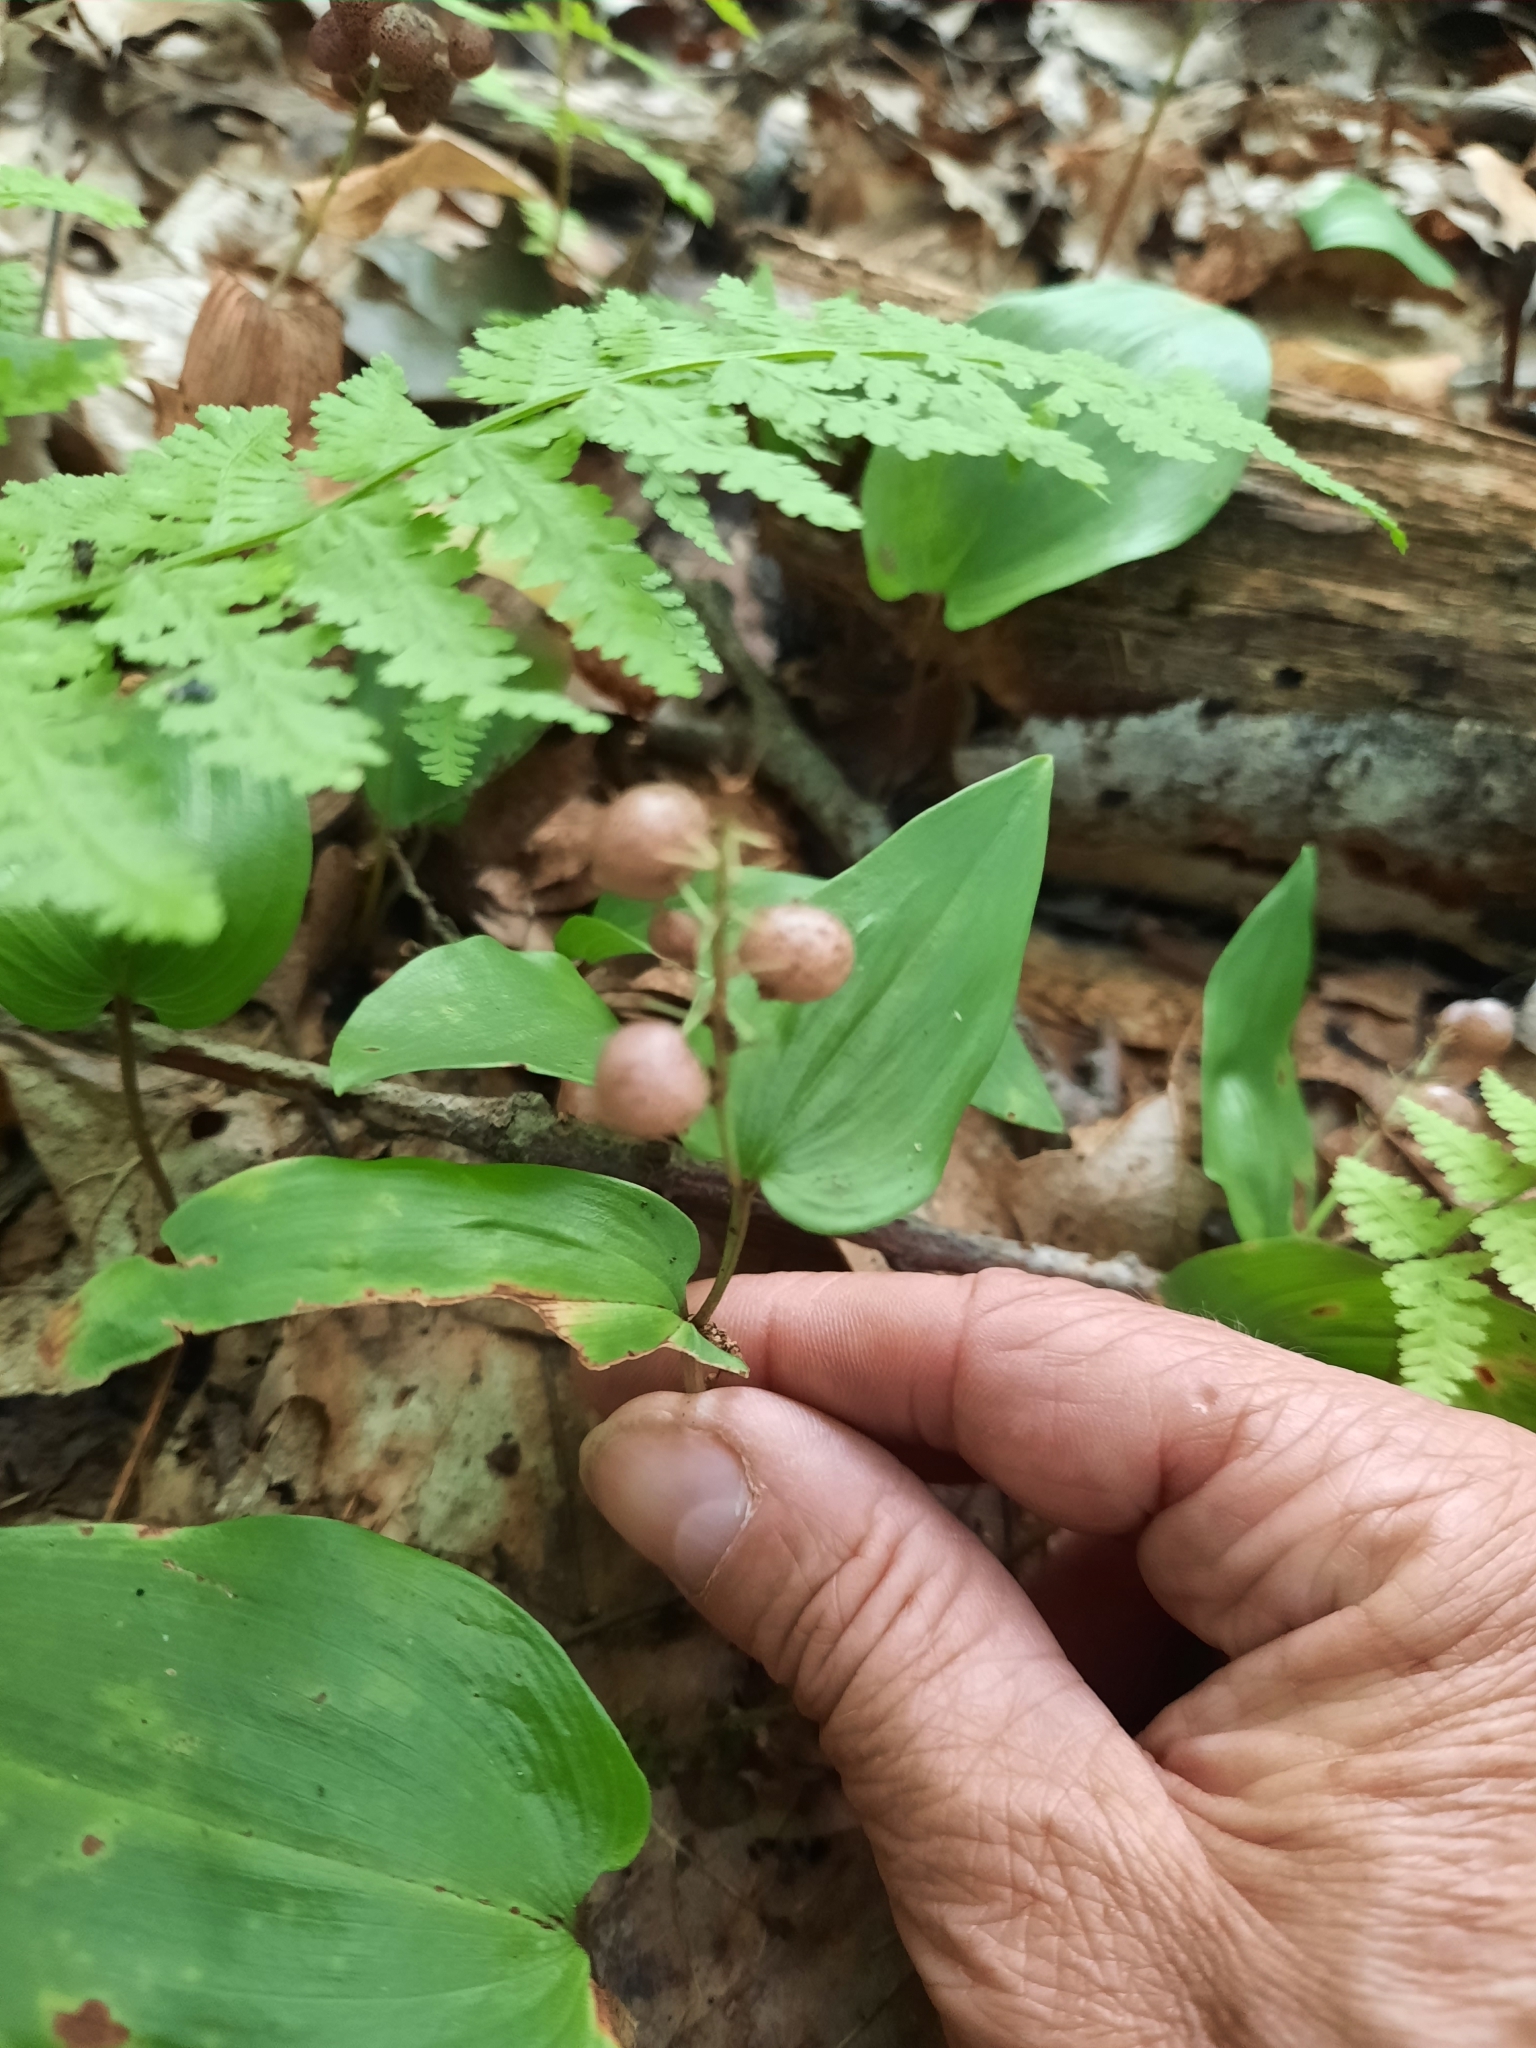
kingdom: Plantae
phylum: Tracheophyta
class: Liliopsida
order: Asparagales
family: Asparagaceae
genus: Maianthemum
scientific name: Maianthemum canadense
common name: False lily-of-the-valley
